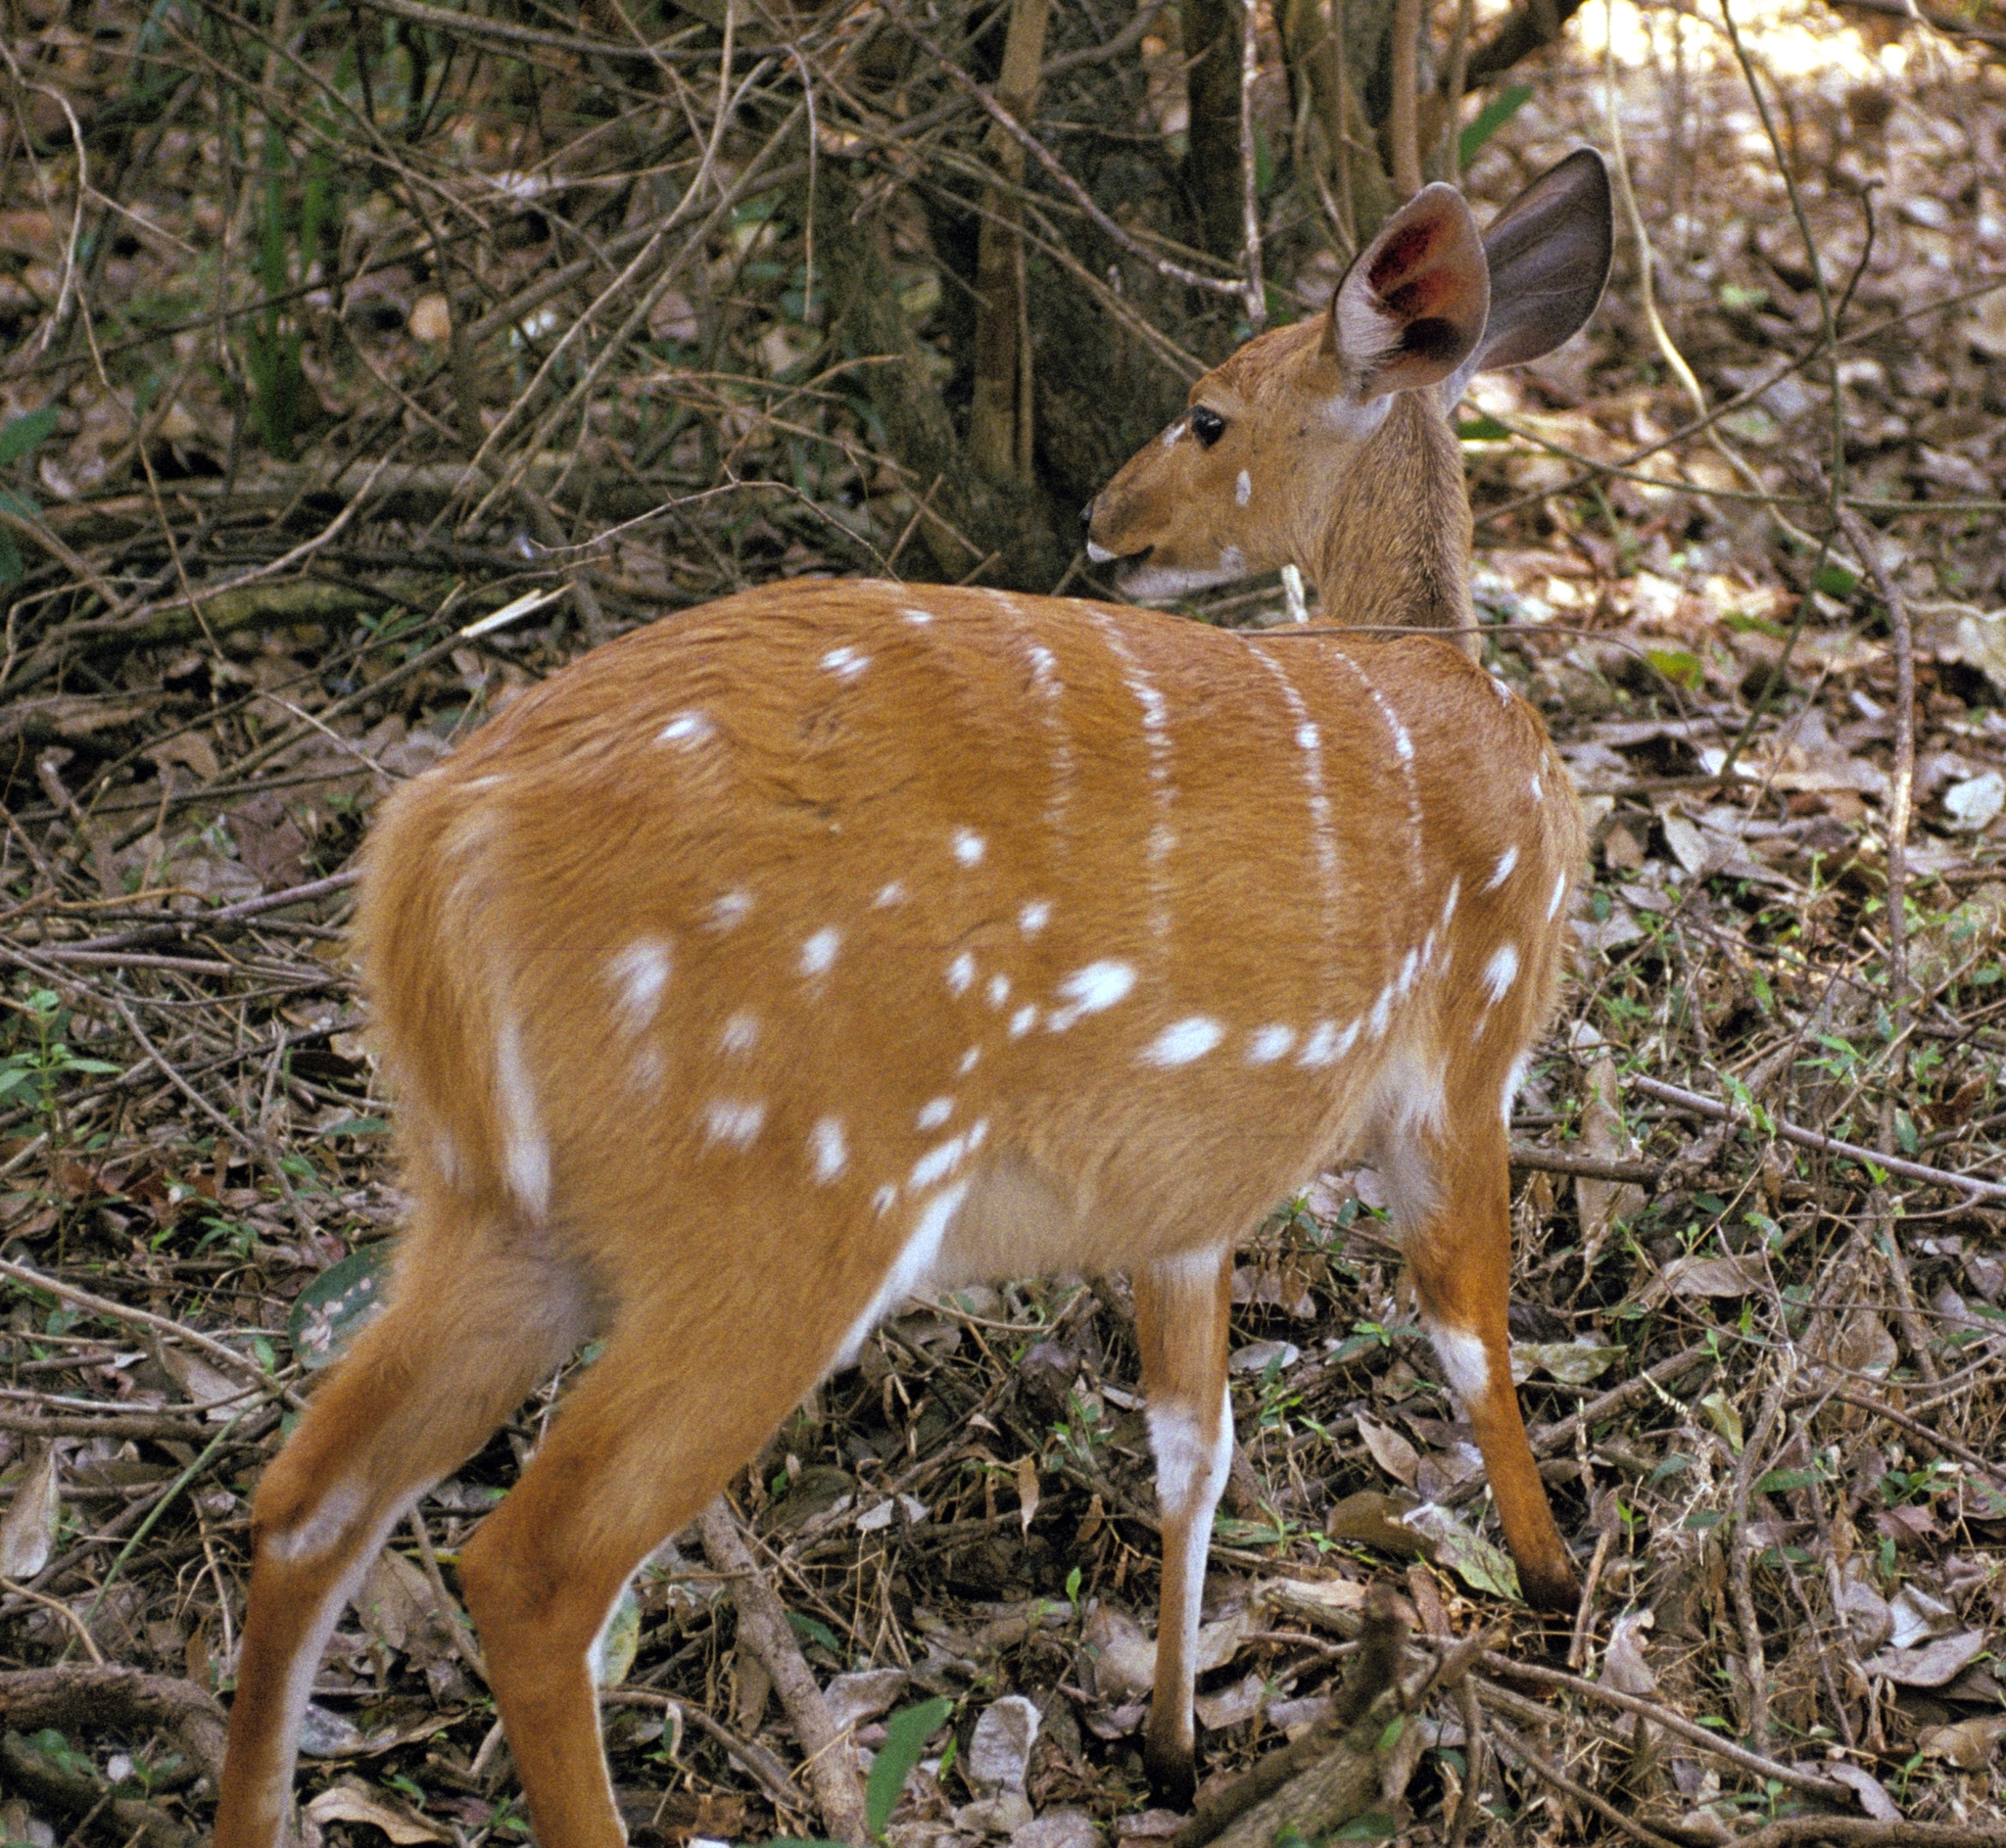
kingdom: Animalia
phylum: Chordata
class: Mammalia
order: Artiodactyla
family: Bovidae
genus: Tragelaphus
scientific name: Tragelaphus scriptus
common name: Bushbuck
